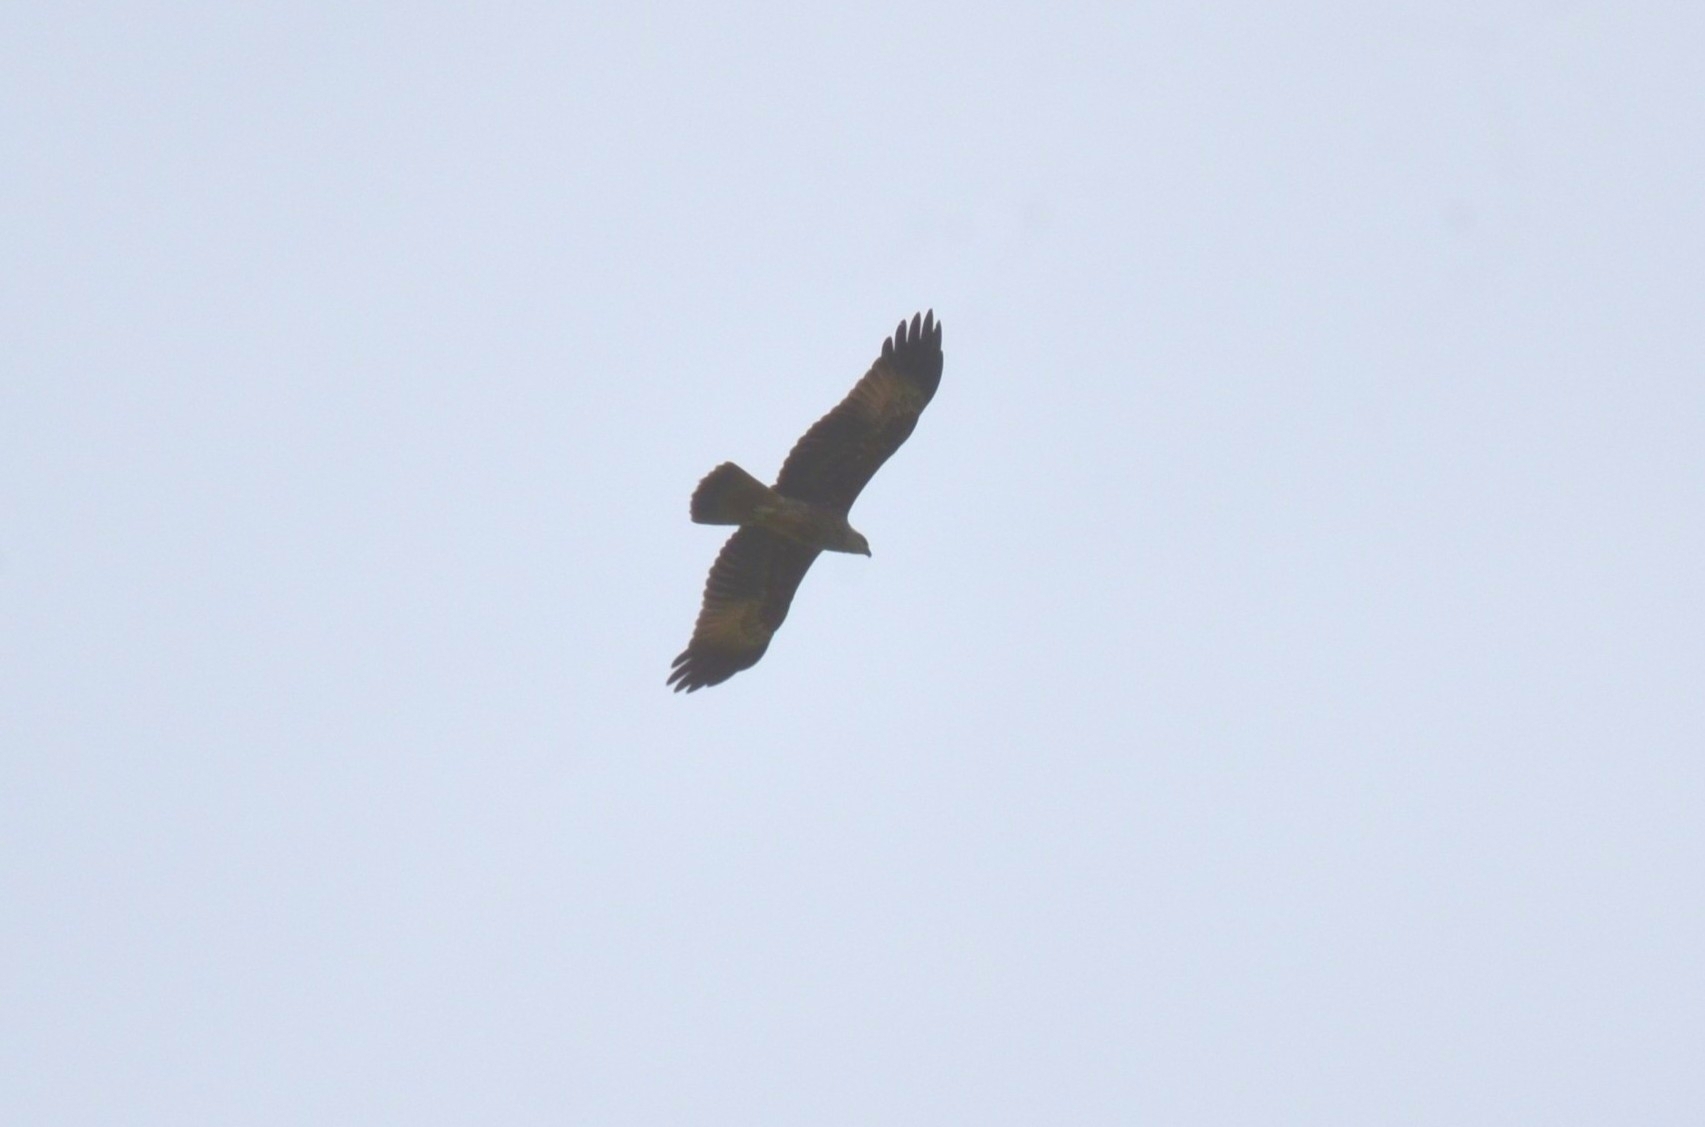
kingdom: Animalia
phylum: Chordata
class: Aves
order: Accipitriformes
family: Accipitridae
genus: Haliastur
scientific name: Haliastur indus
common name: Brahminy kite
